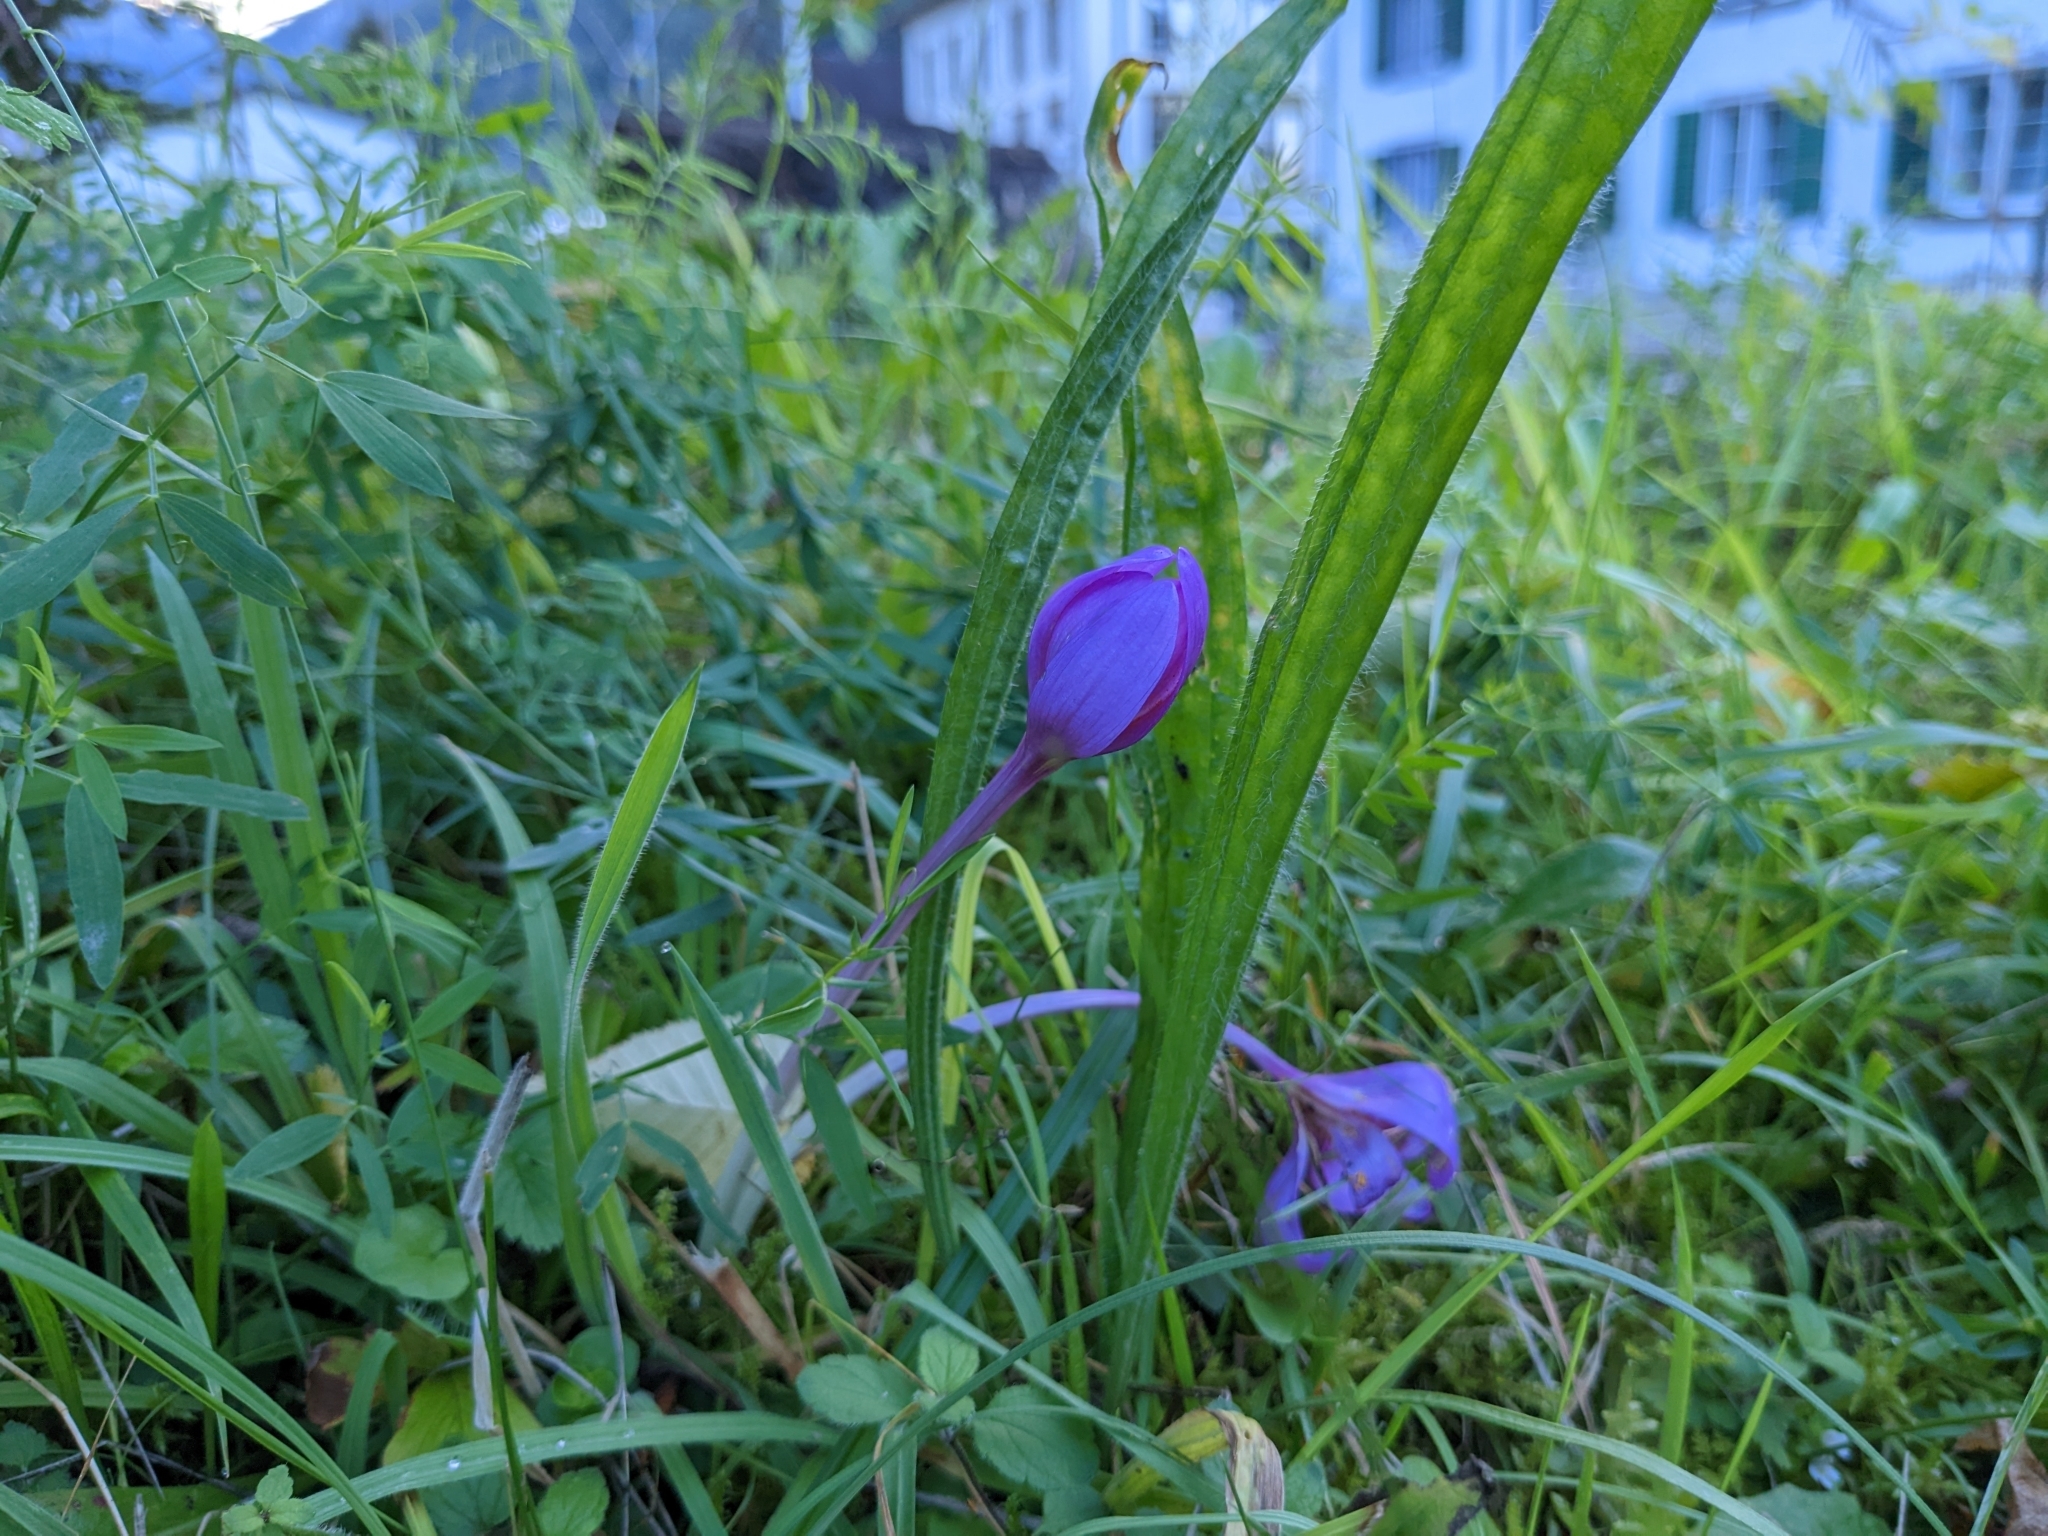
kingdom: Plantae
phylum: Tracheophyta
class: Liliopsida
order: Liliales
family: Colchicaceae
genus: Colchicum
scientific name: Colchicum autumnale
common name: Autumn crocus
